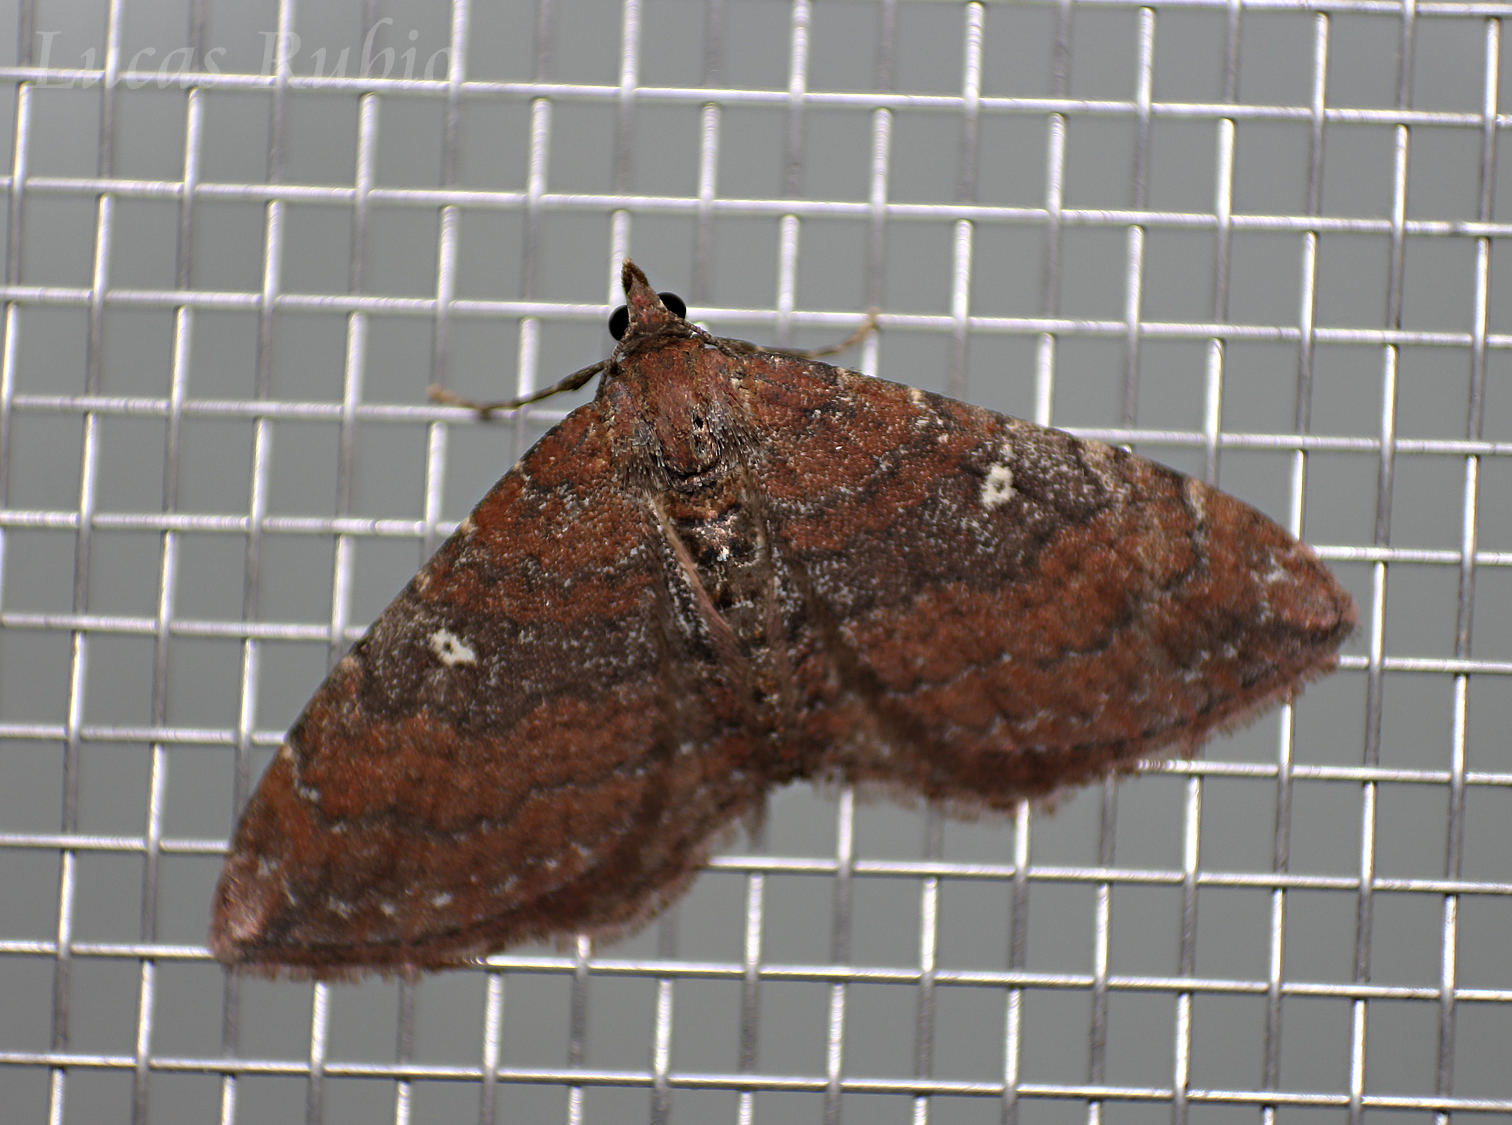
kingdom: Animalia
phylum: Arthropoda
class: Insecta
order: Lepidoptera
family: Geometridae
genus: Orthonama
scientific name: Orthonama obstipata
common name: The gem
